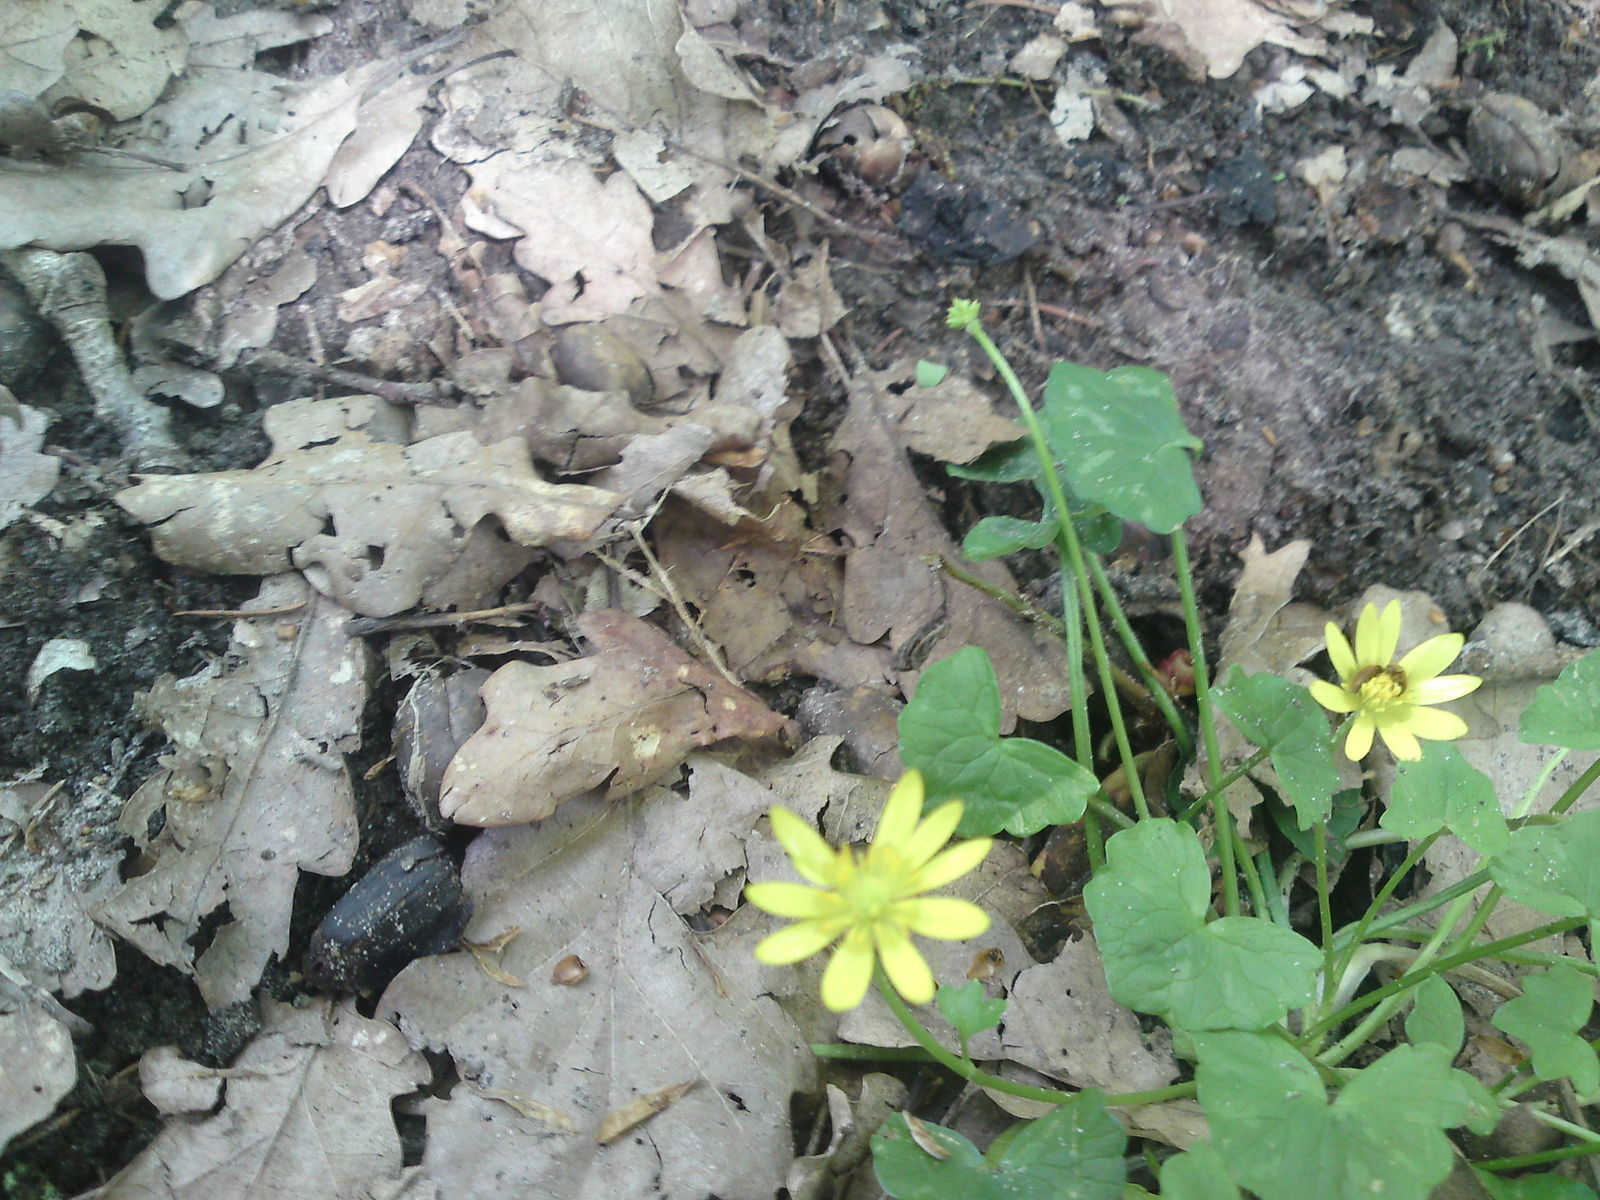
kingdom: Plantae
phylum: Tracheophyta
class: Magnoliopsida
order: Ranunculales
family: Ranunculaceae
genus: Ficaria
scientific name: Ficaria verna
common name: Lesser celandine
